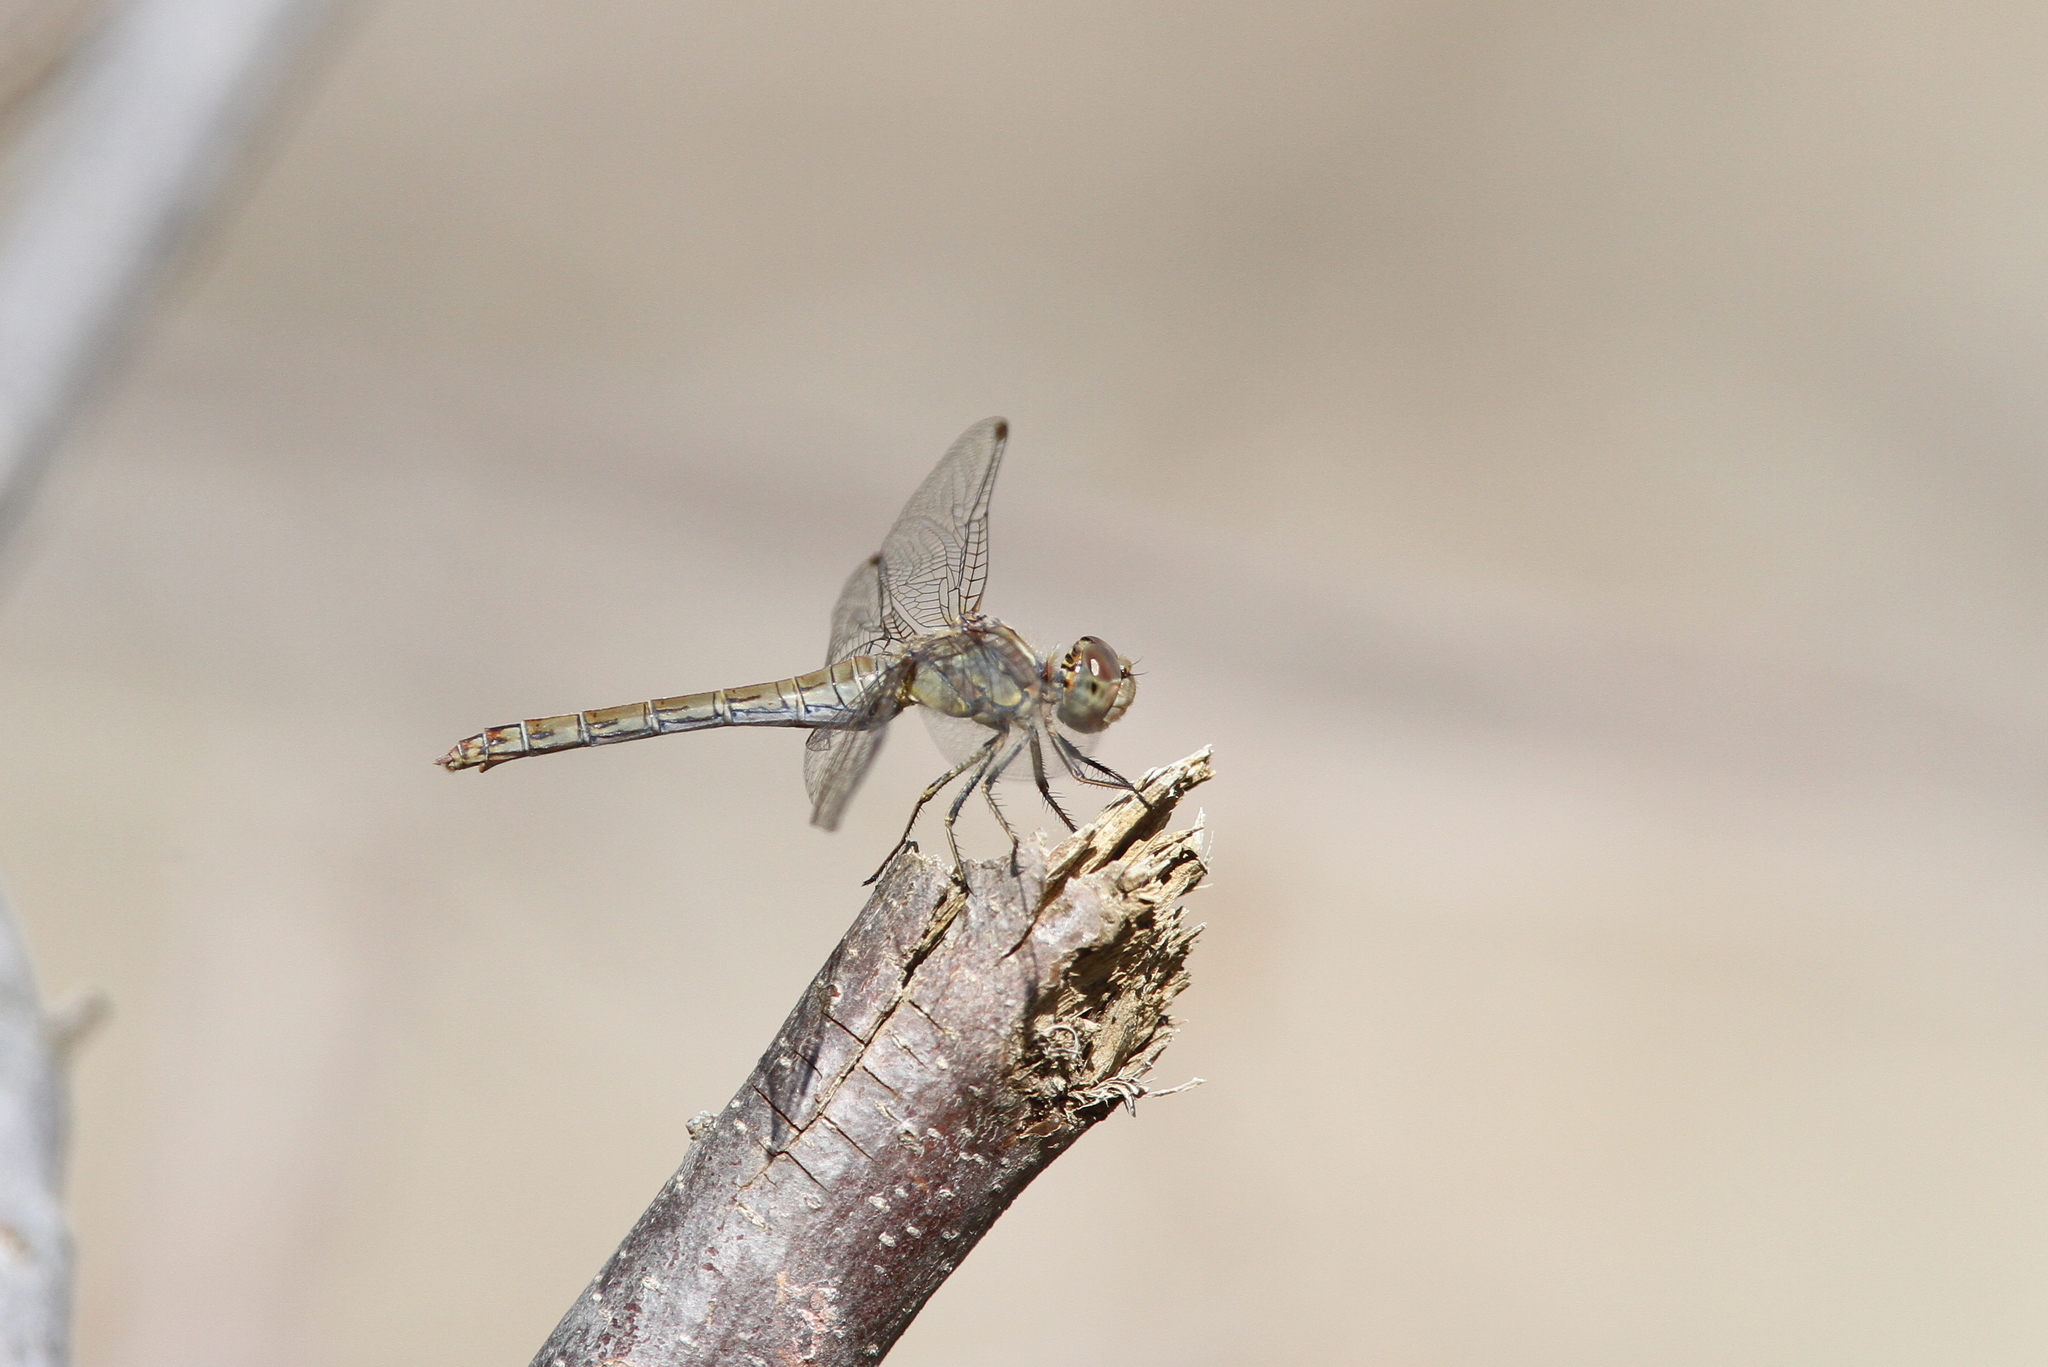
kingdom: Animalia
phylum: Arthropoda
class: Insecta
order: Odonata
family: Libellulidae
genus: Sympetrum
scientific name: Sympetrum striolatum
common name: Common darter
